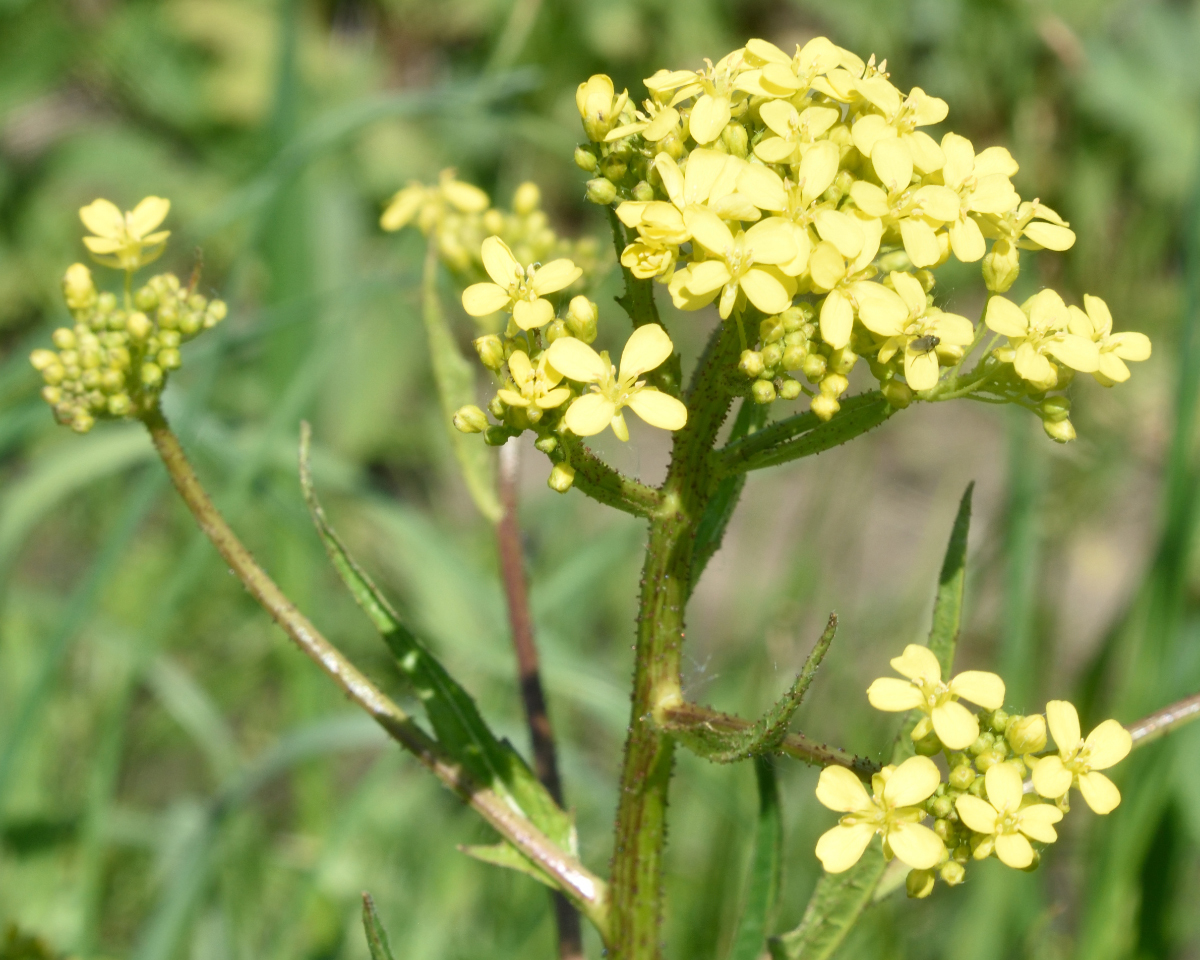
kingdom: Plantae
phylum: Tracheophyta
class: Magnoliopsida
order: Brassicales
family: Brassicaceae
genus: Bunias
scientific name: Bunias orientalis
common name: Warty-cabbage
